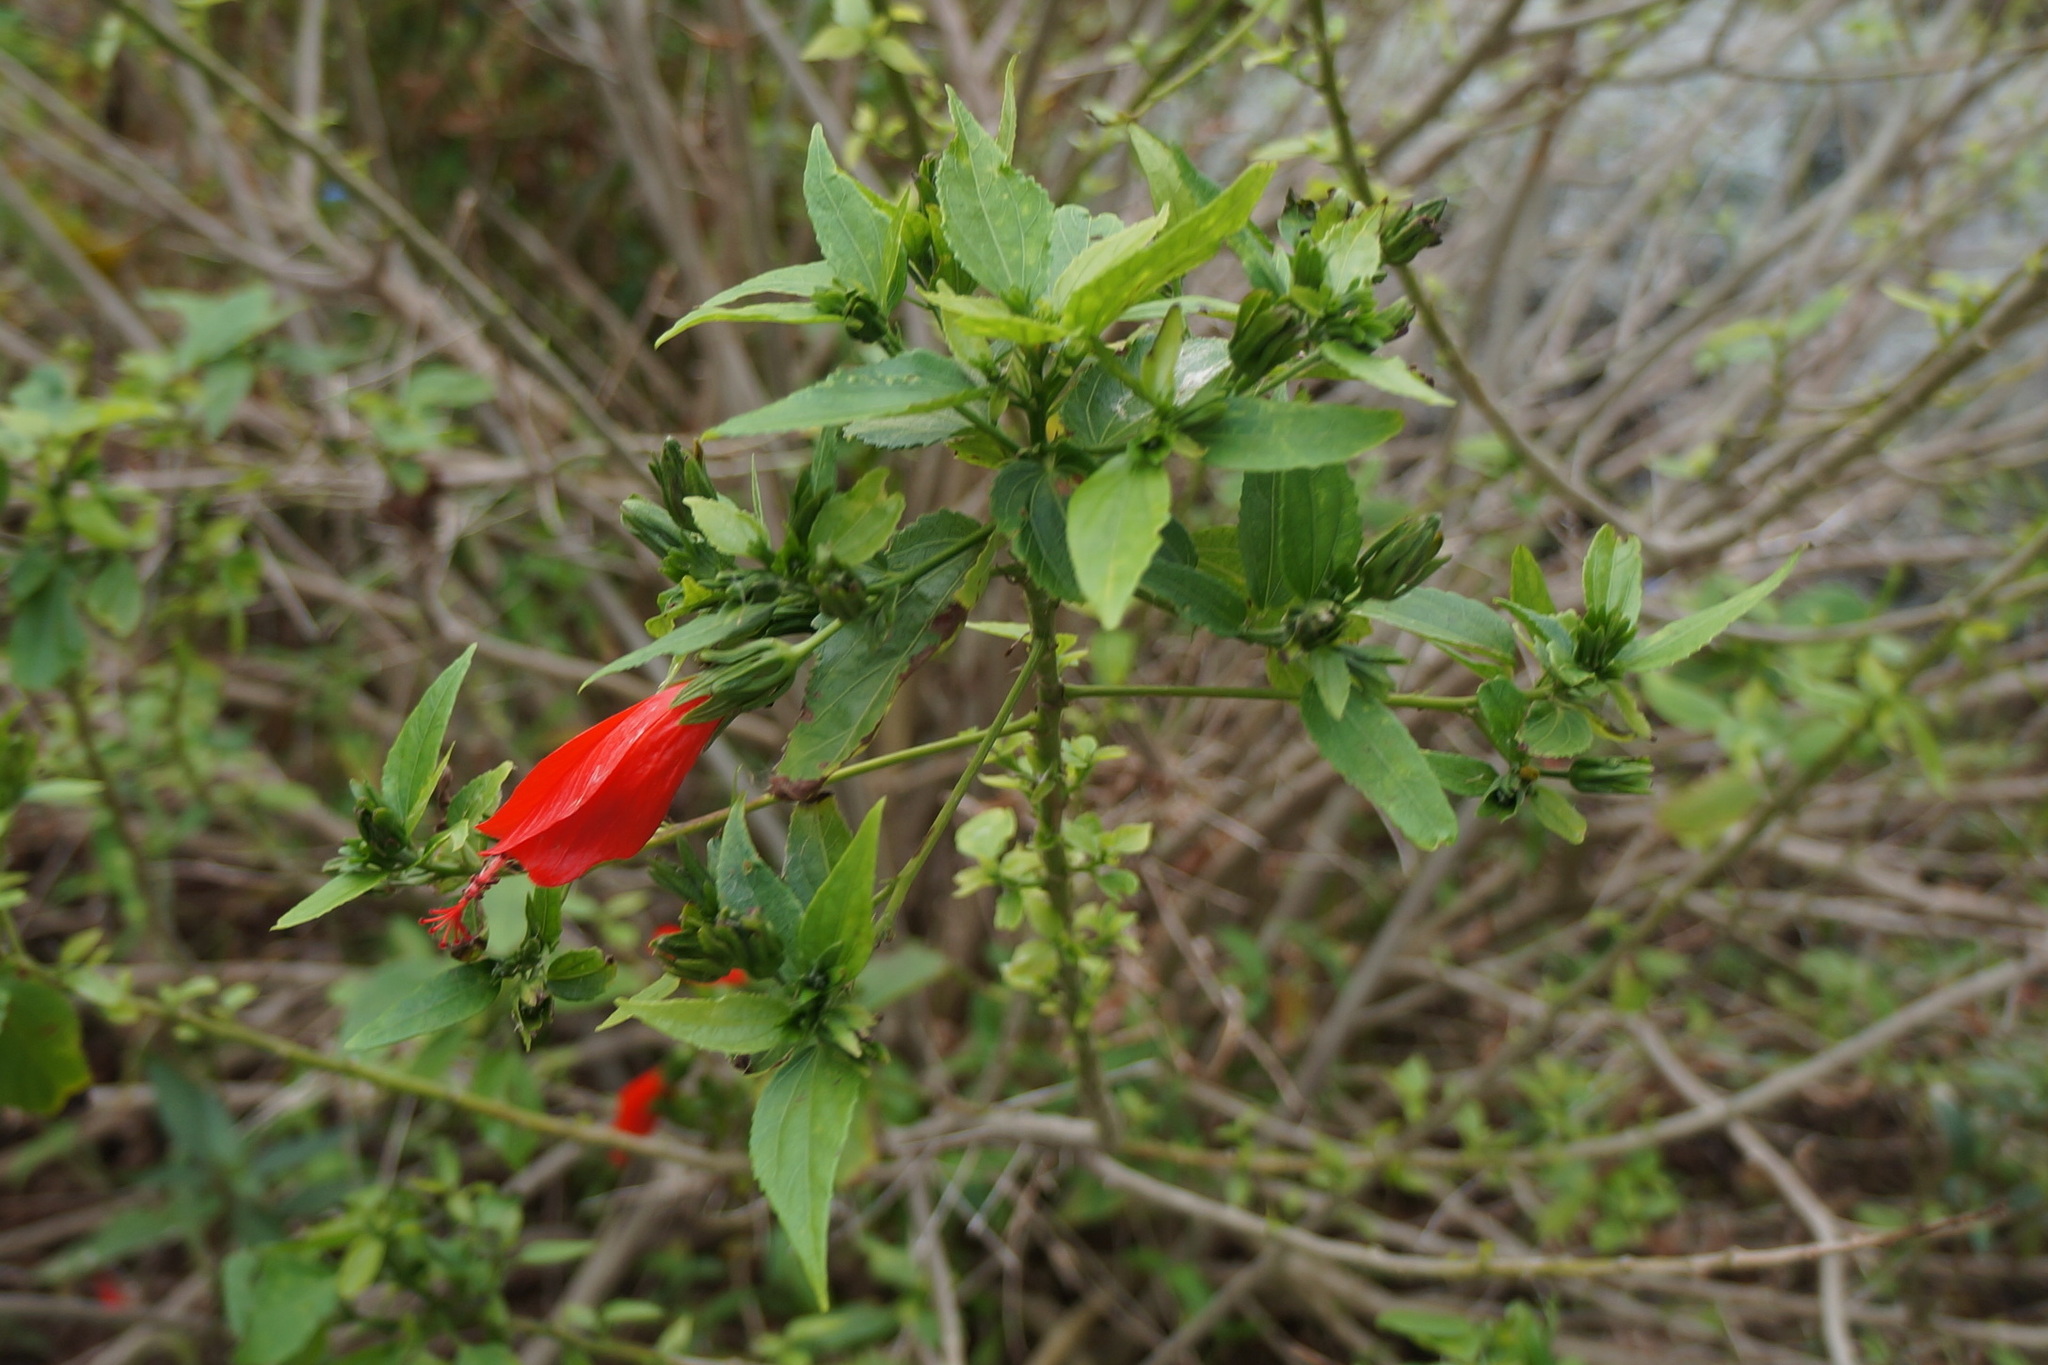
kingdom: Plantae
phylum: Tracheophyta
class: Magnoliopsida
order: Malvales
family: Malvaceae
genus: Malvaviscus
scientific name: Malvaviscus penduliflorus
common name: Mazapan
